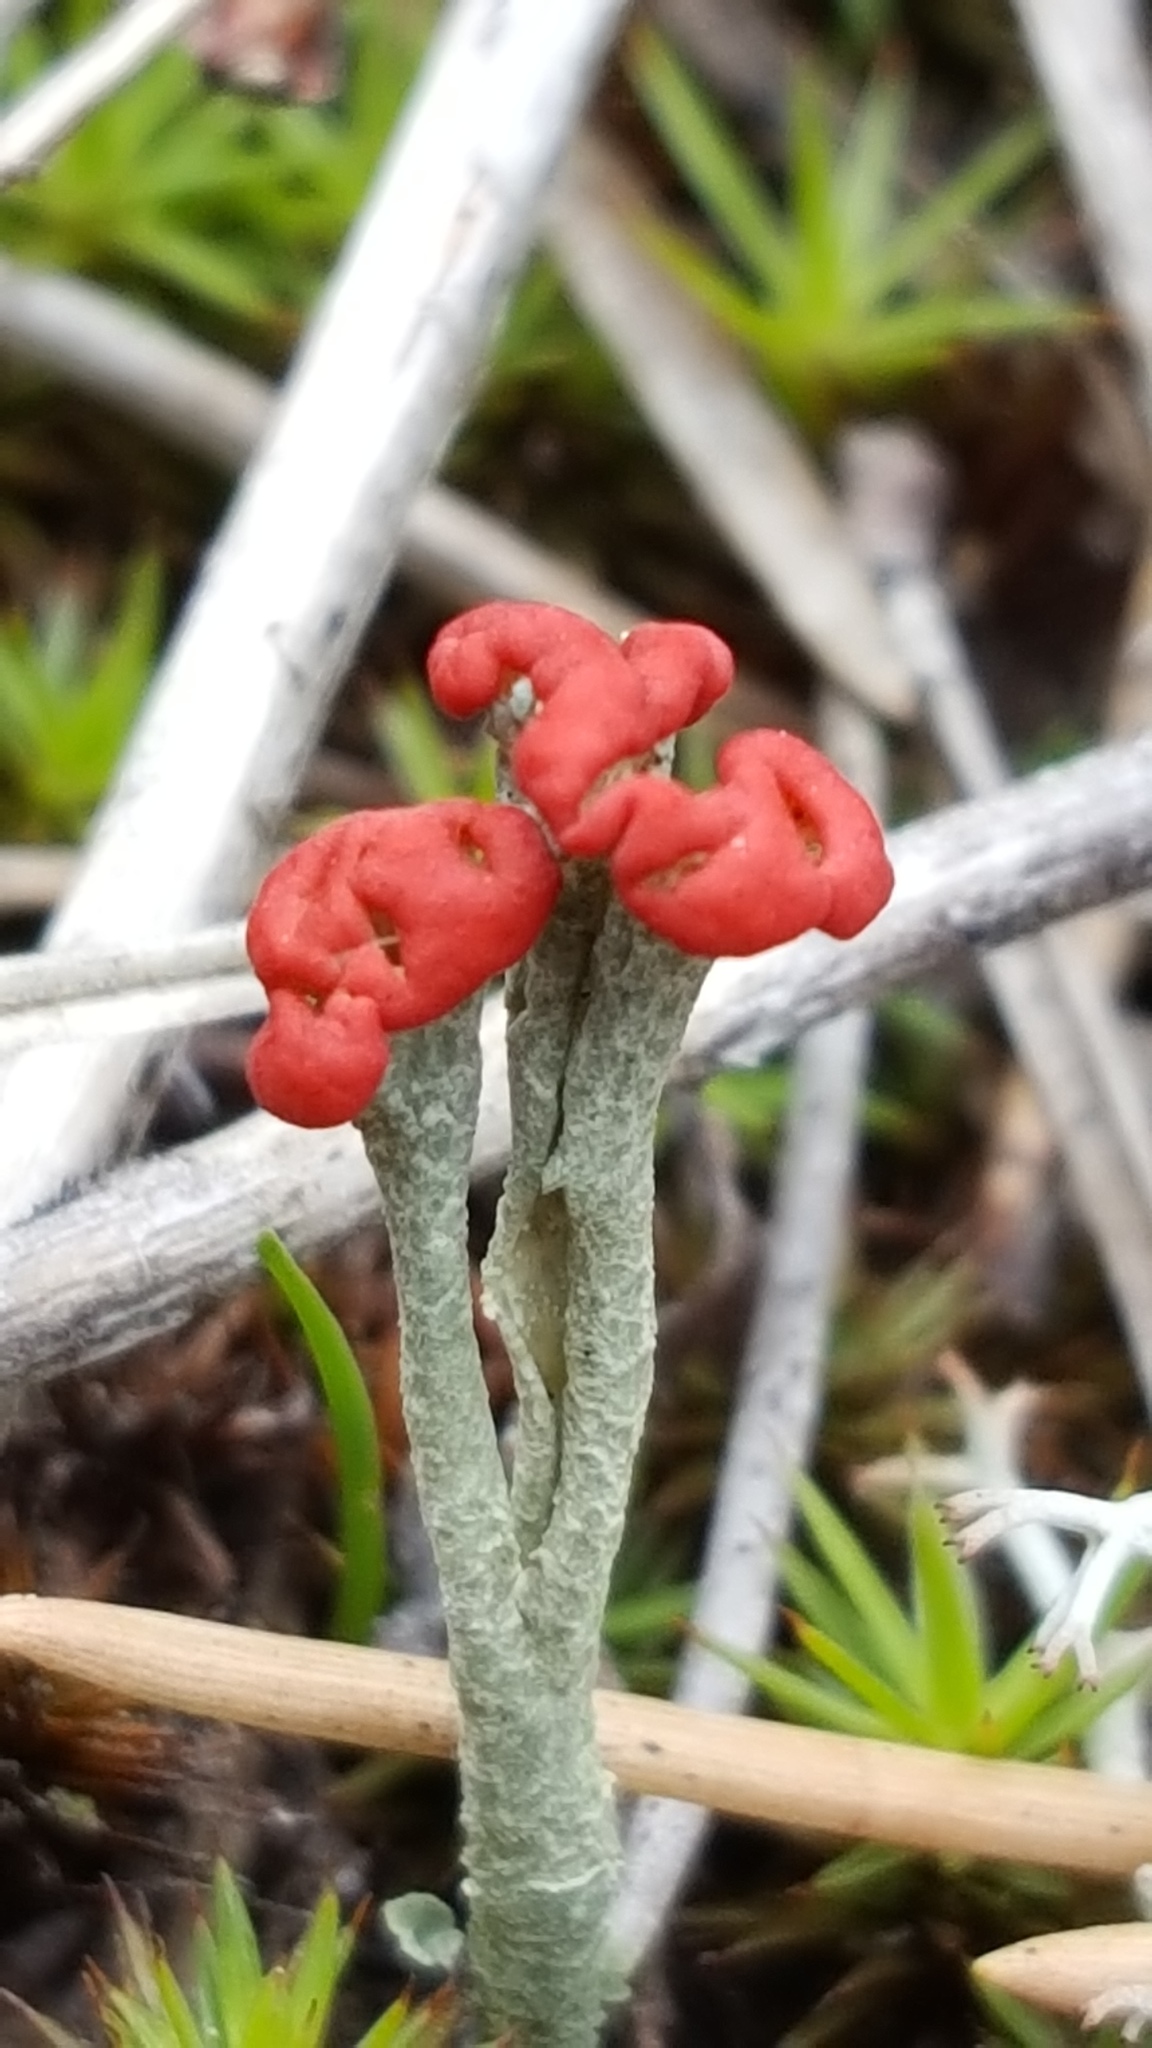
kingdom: Fungi
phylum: Ascomycota
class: Lecanoromycetes
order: Lecanorales
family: Cladoniaceae
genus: Cladonia
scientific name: Cladonia cristatella
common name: British soldier lichen
